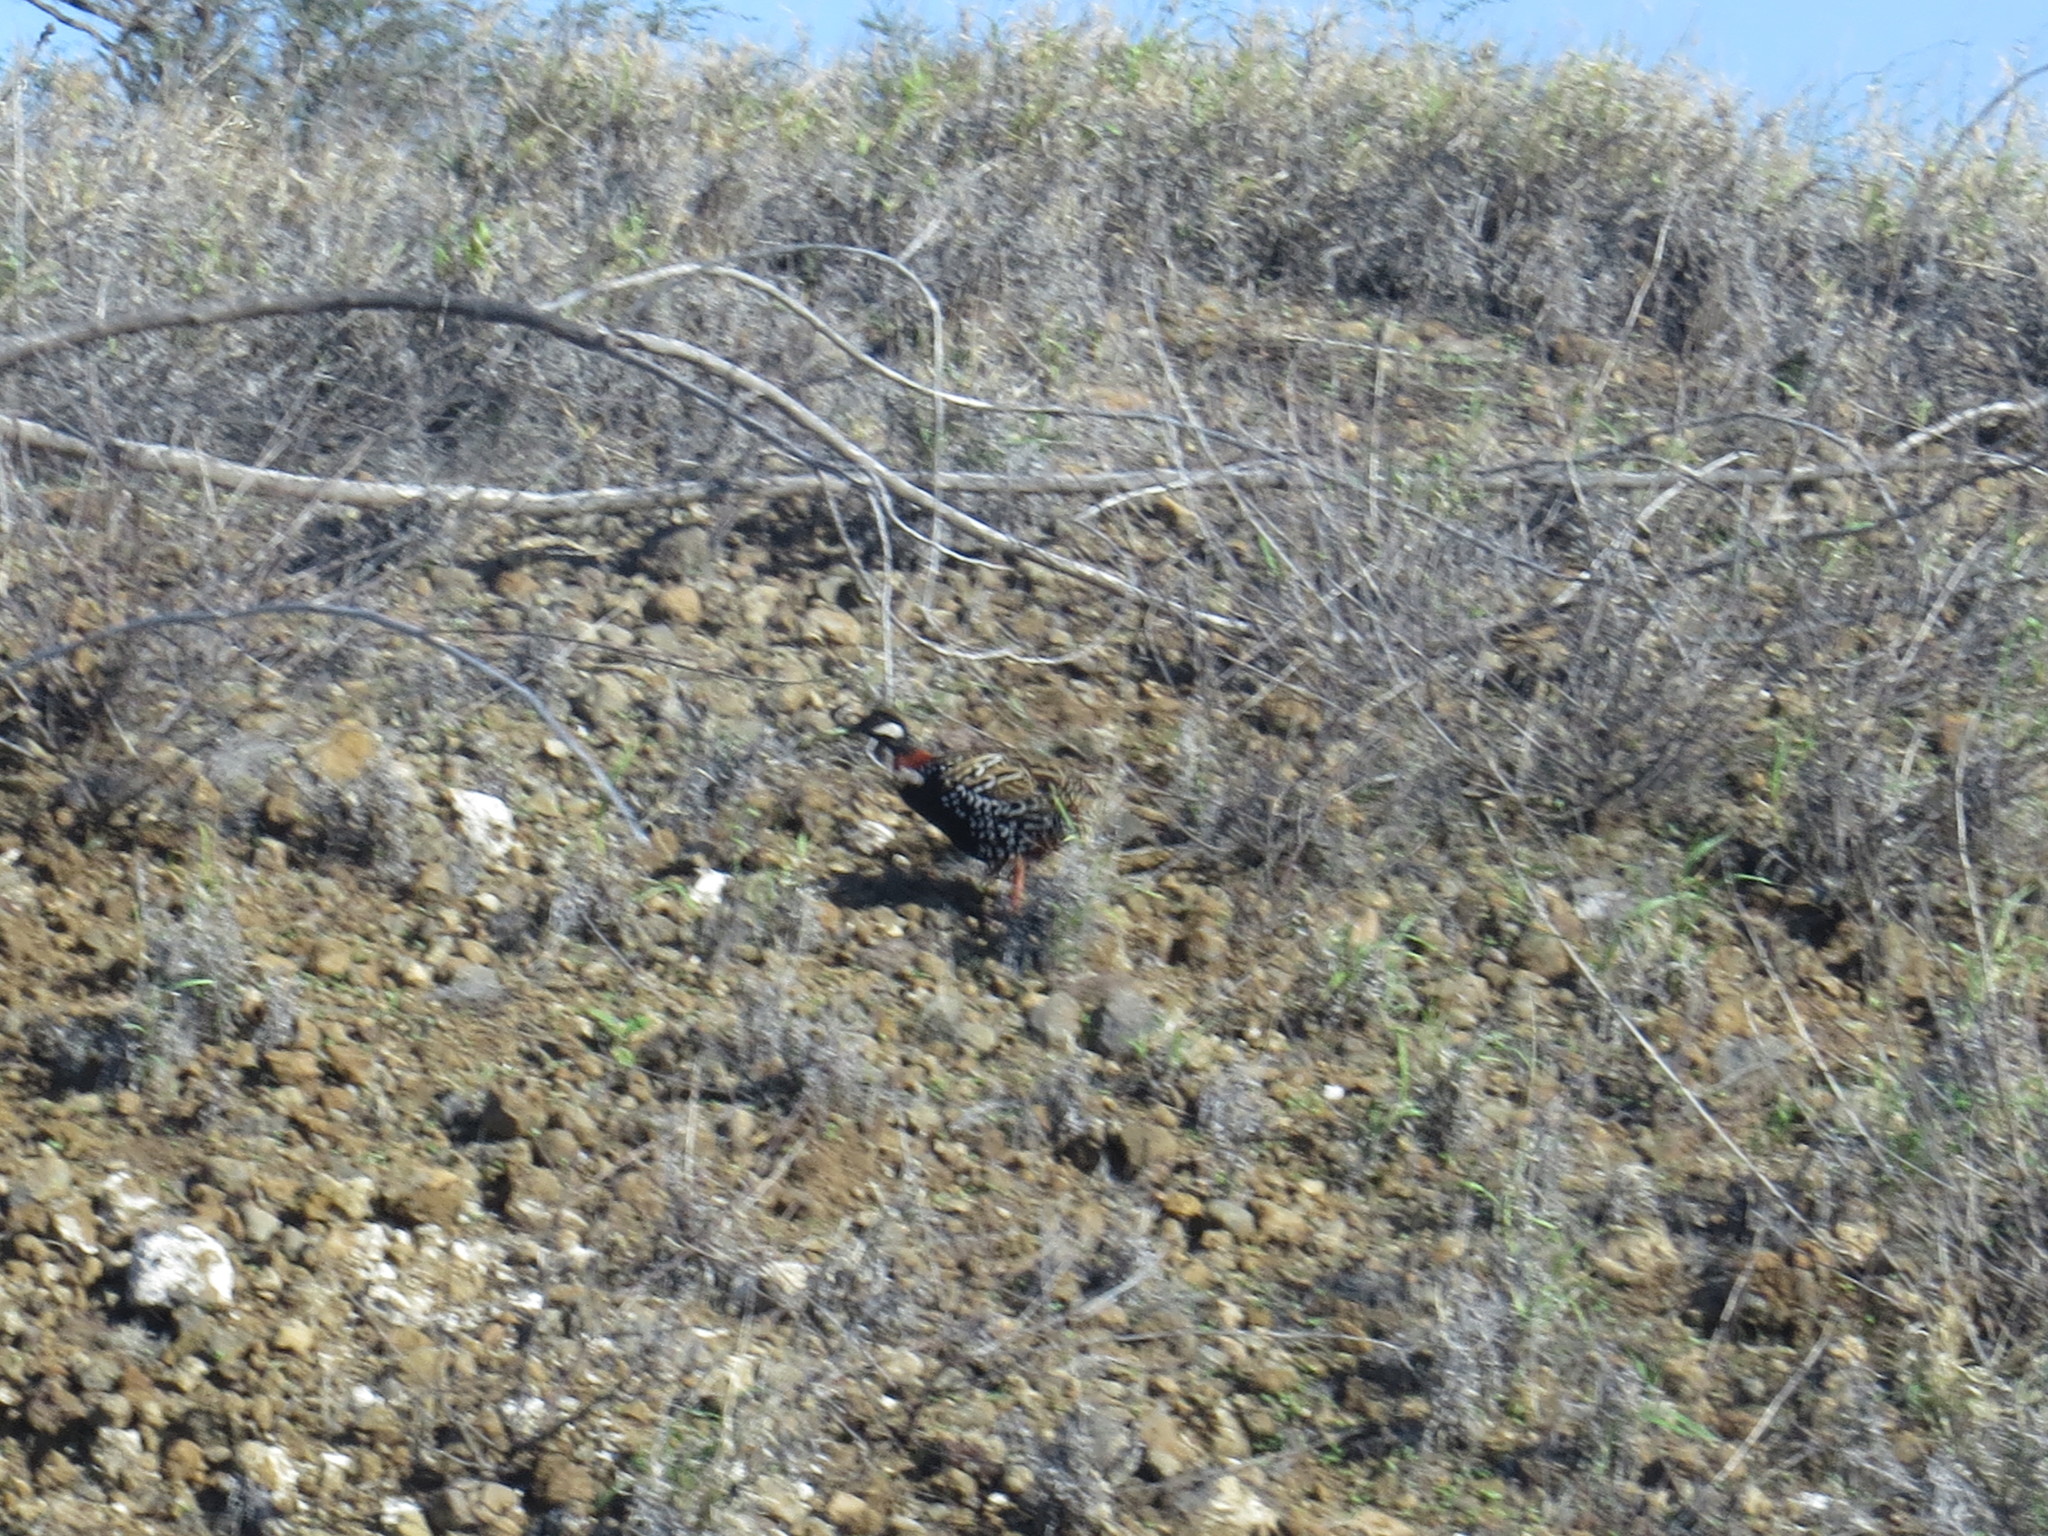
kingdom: Animalia
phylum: Chordata
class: Aves
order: Galliformes
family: Phasianidae
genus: Francolinus
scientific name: Francolinus francolinus
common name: Black francolin
